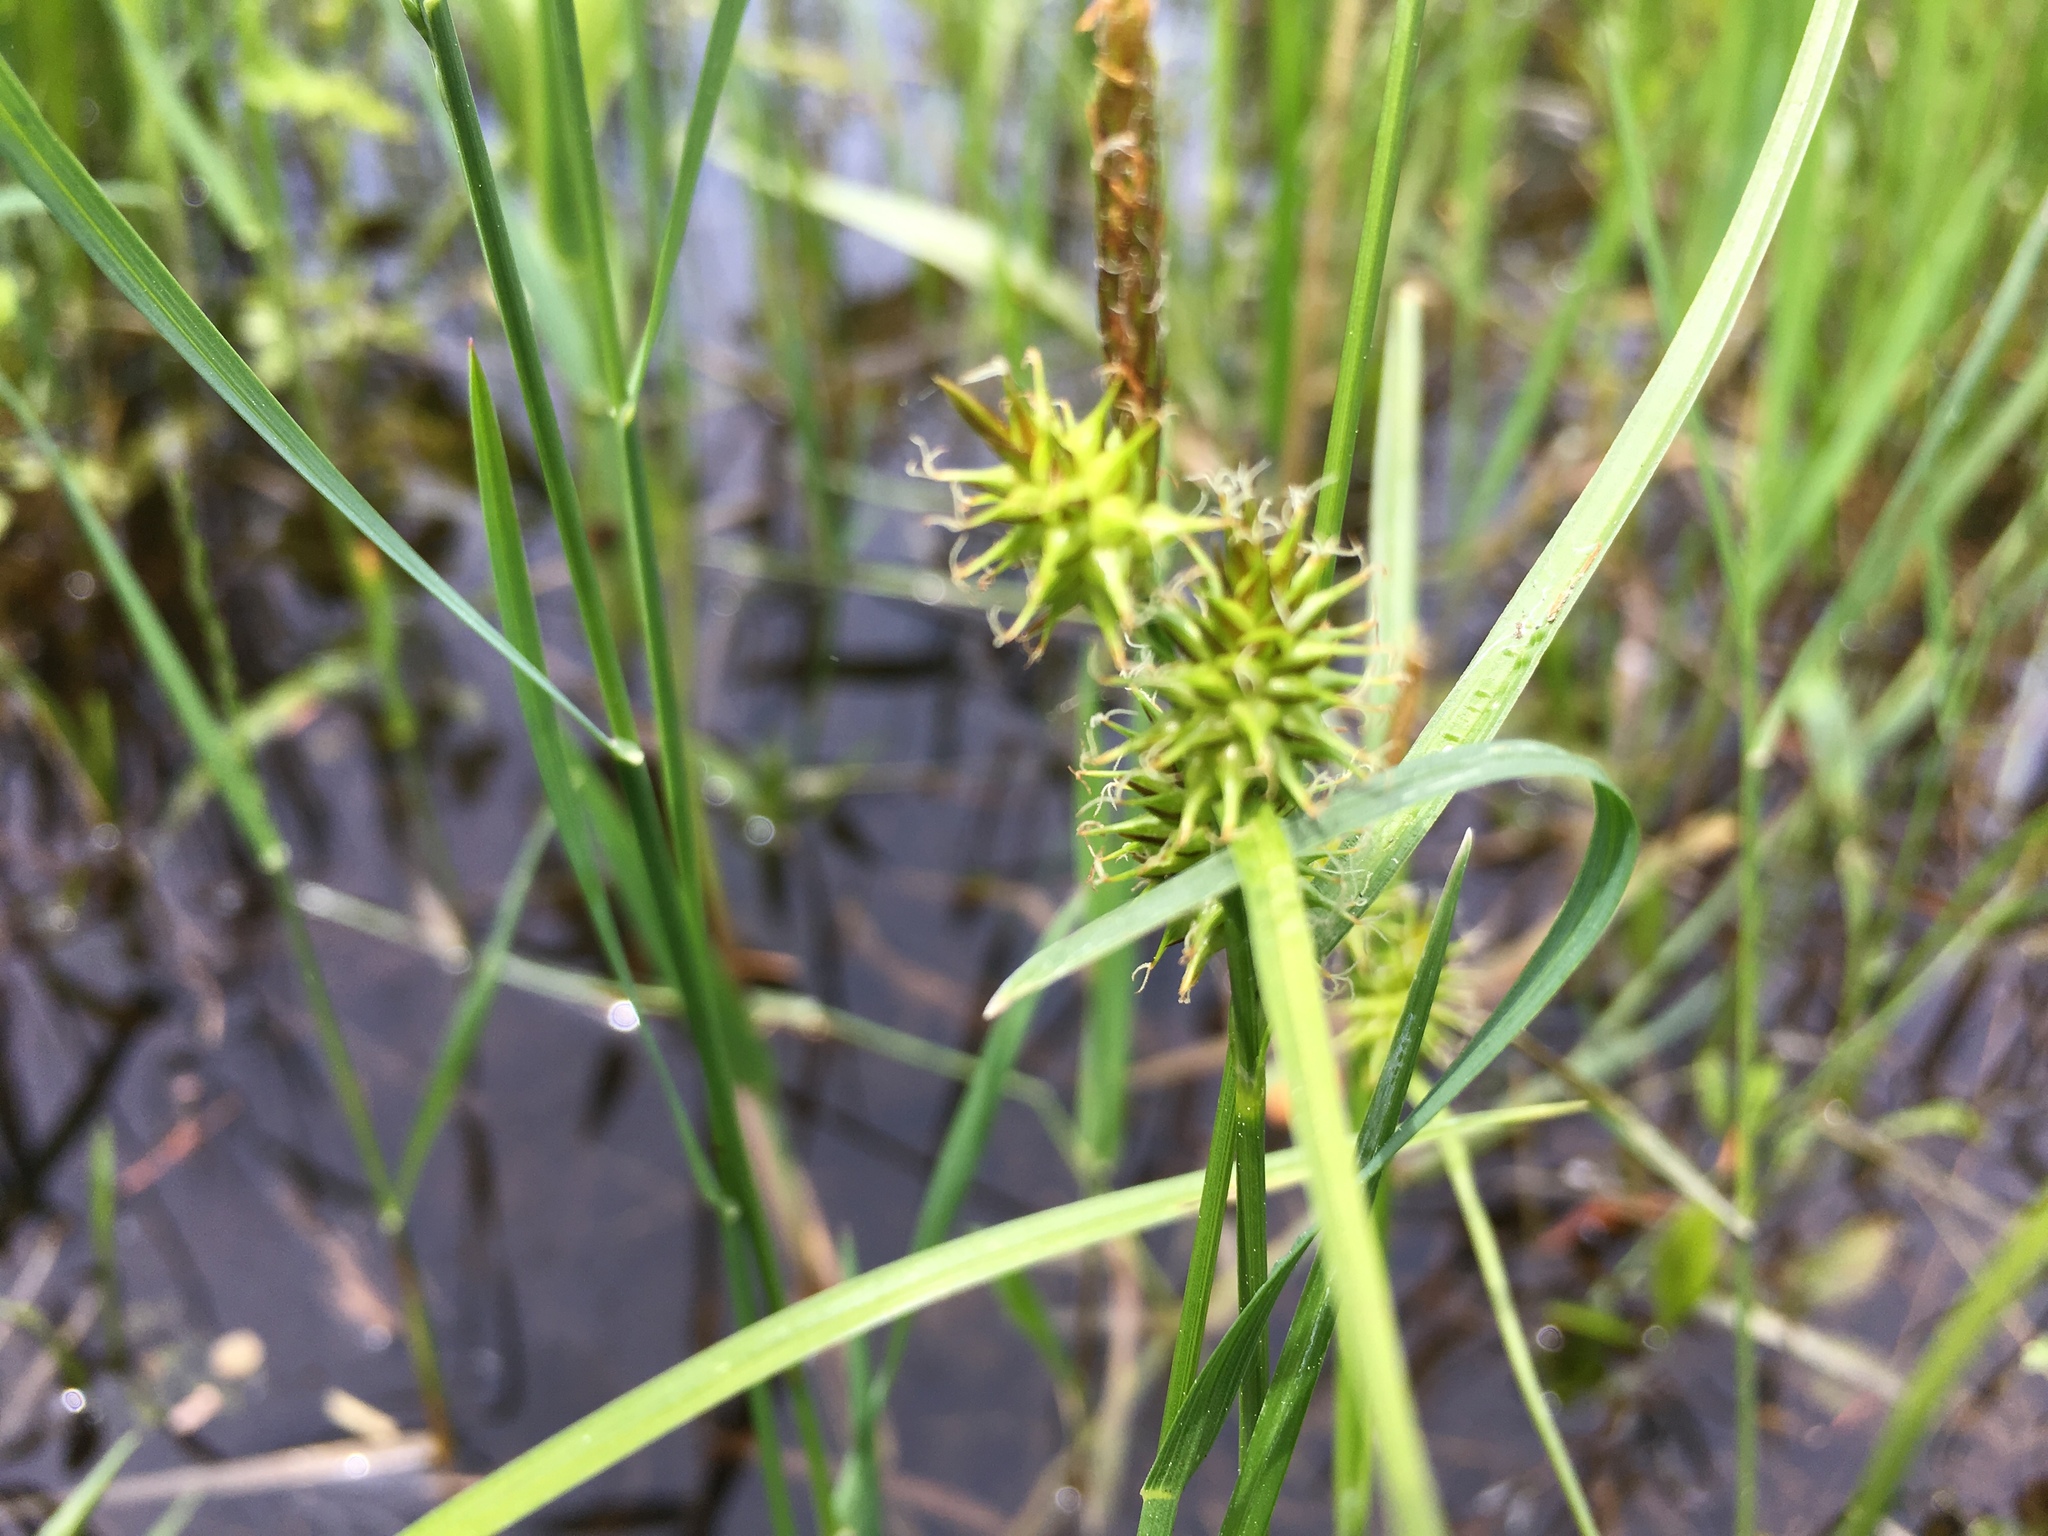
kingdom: Plantae
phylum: Tracheophyta
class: Liliopsida
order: Poales
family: Cyperaceae
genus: Carex
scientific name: Carex flava
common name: Large yellow-sedge
